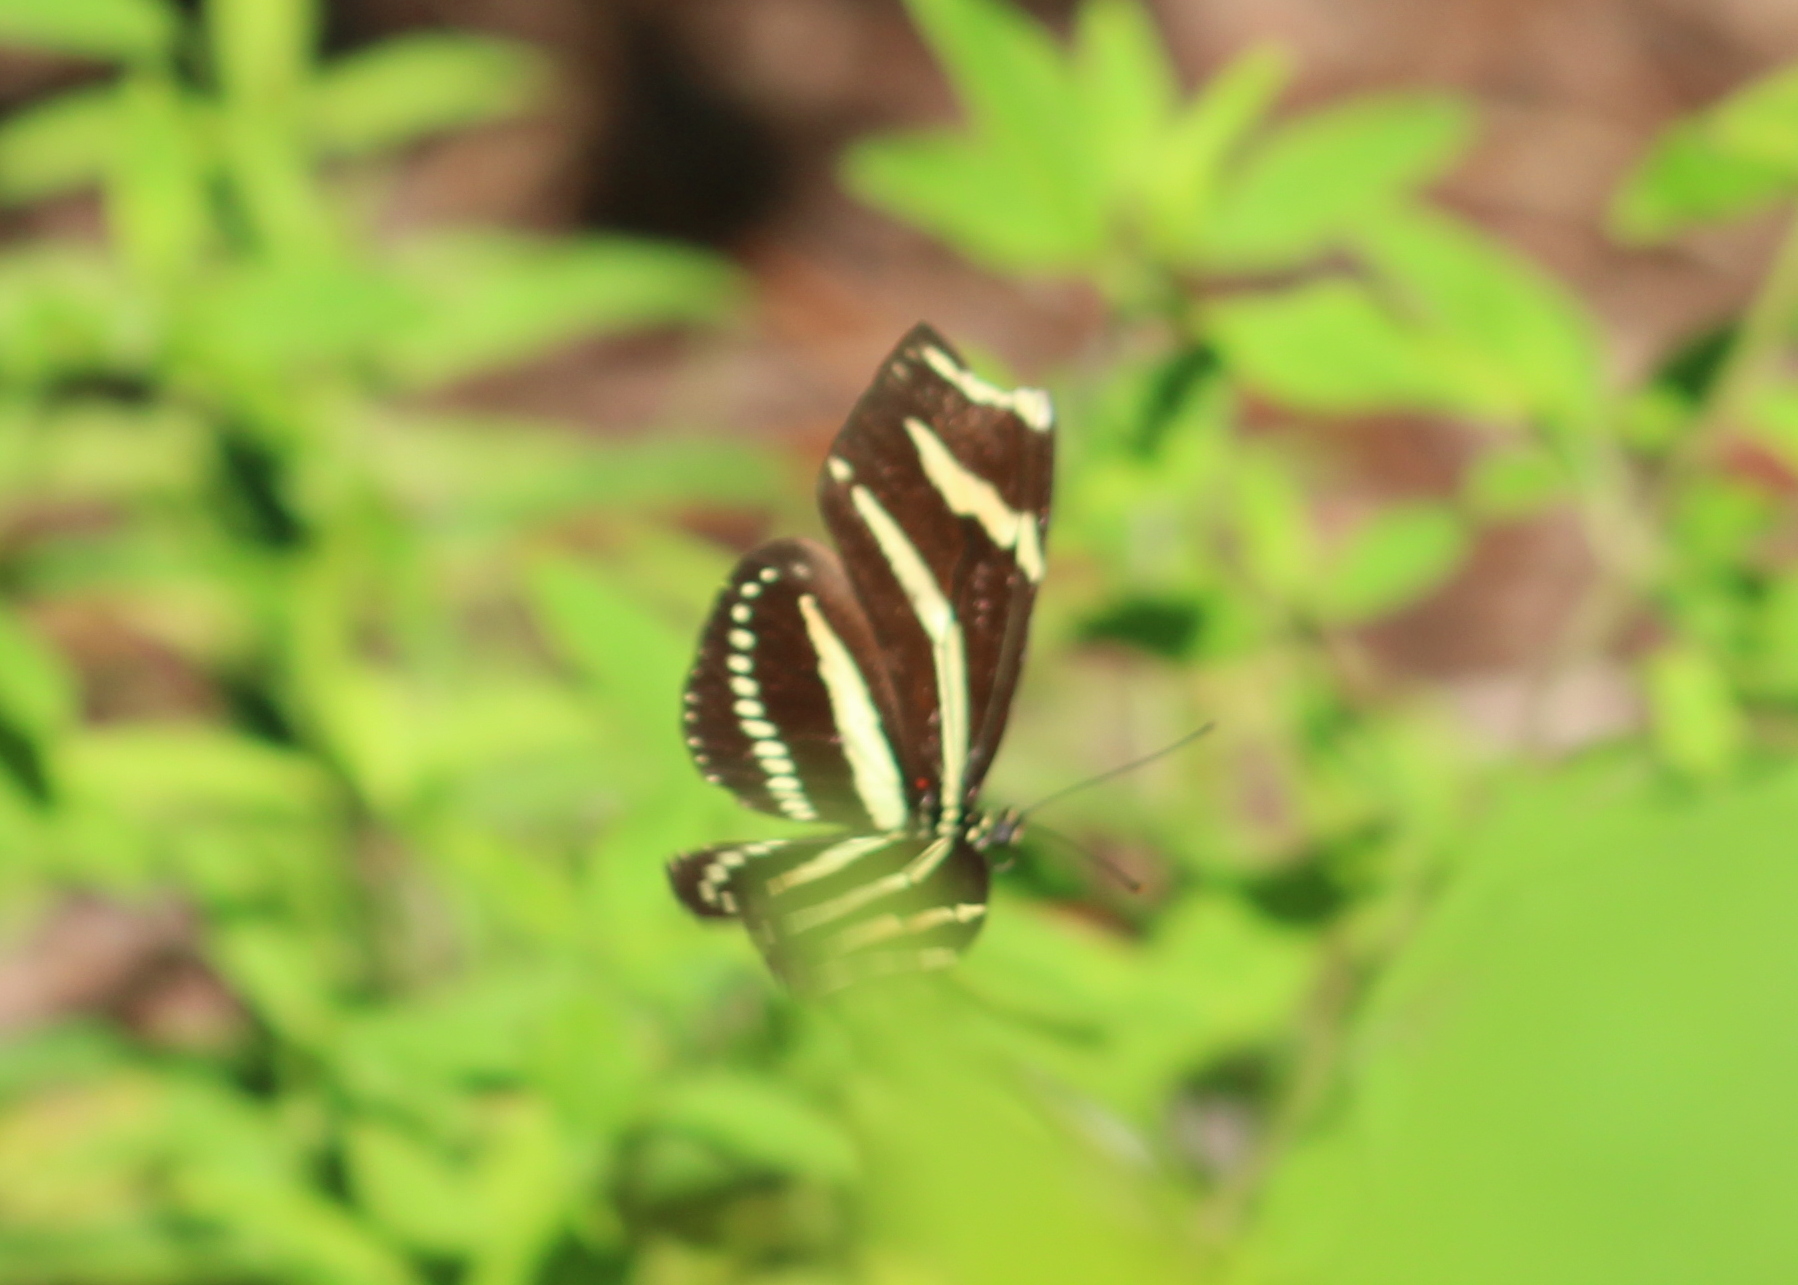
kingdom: Animalia
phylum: Arthropoda
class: Insecta
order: Lepidoptera
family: Nymphalidae
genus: Heliconius
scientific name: Heliconius charithonia
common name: Zebra long wing
